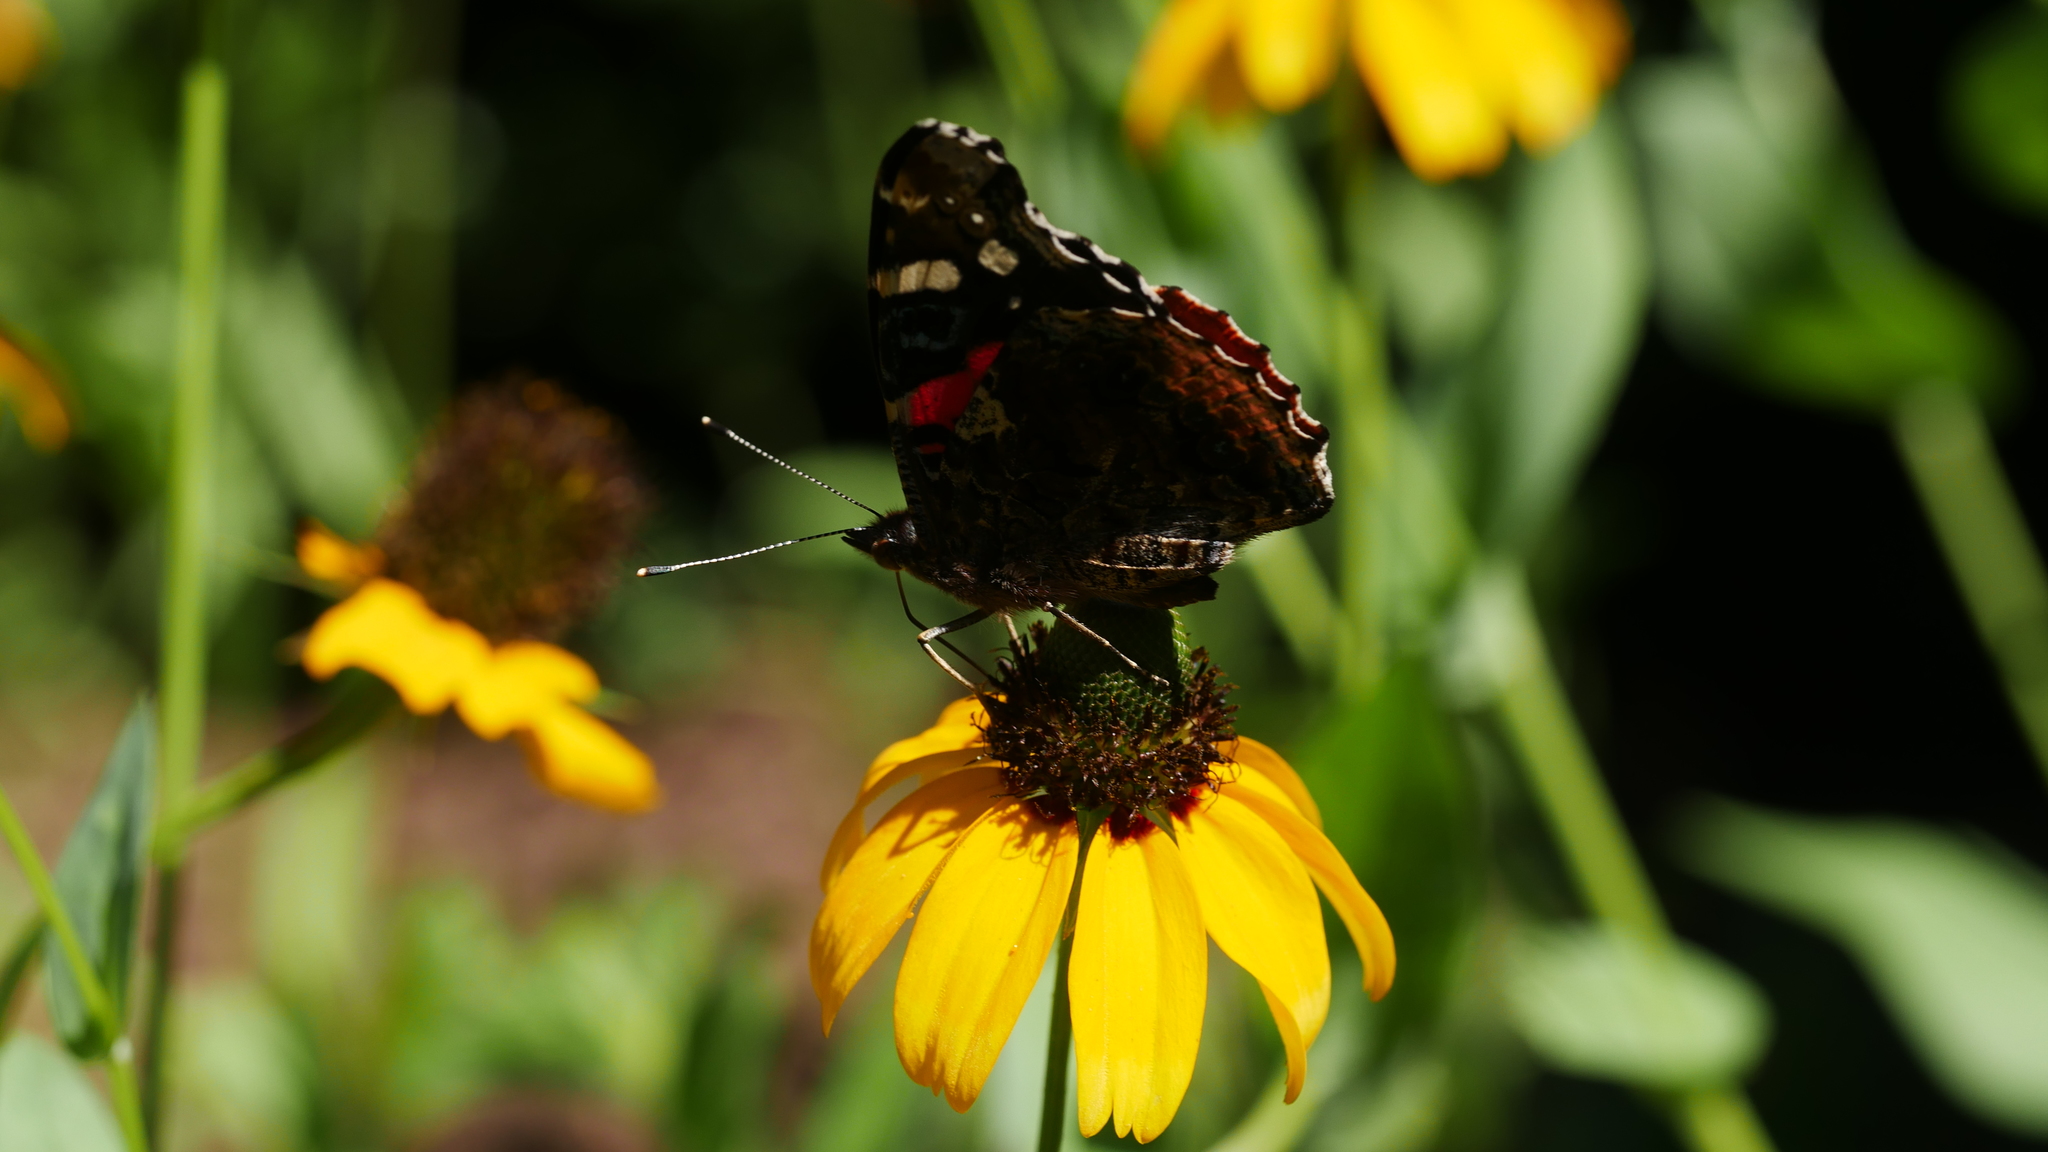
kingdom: Animalia
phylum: Arthropoda
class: Insecta
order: Lepidoptera
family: Nymphalidae
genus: Vanessa
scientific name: Vanessa atalanta
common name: Red admiral
